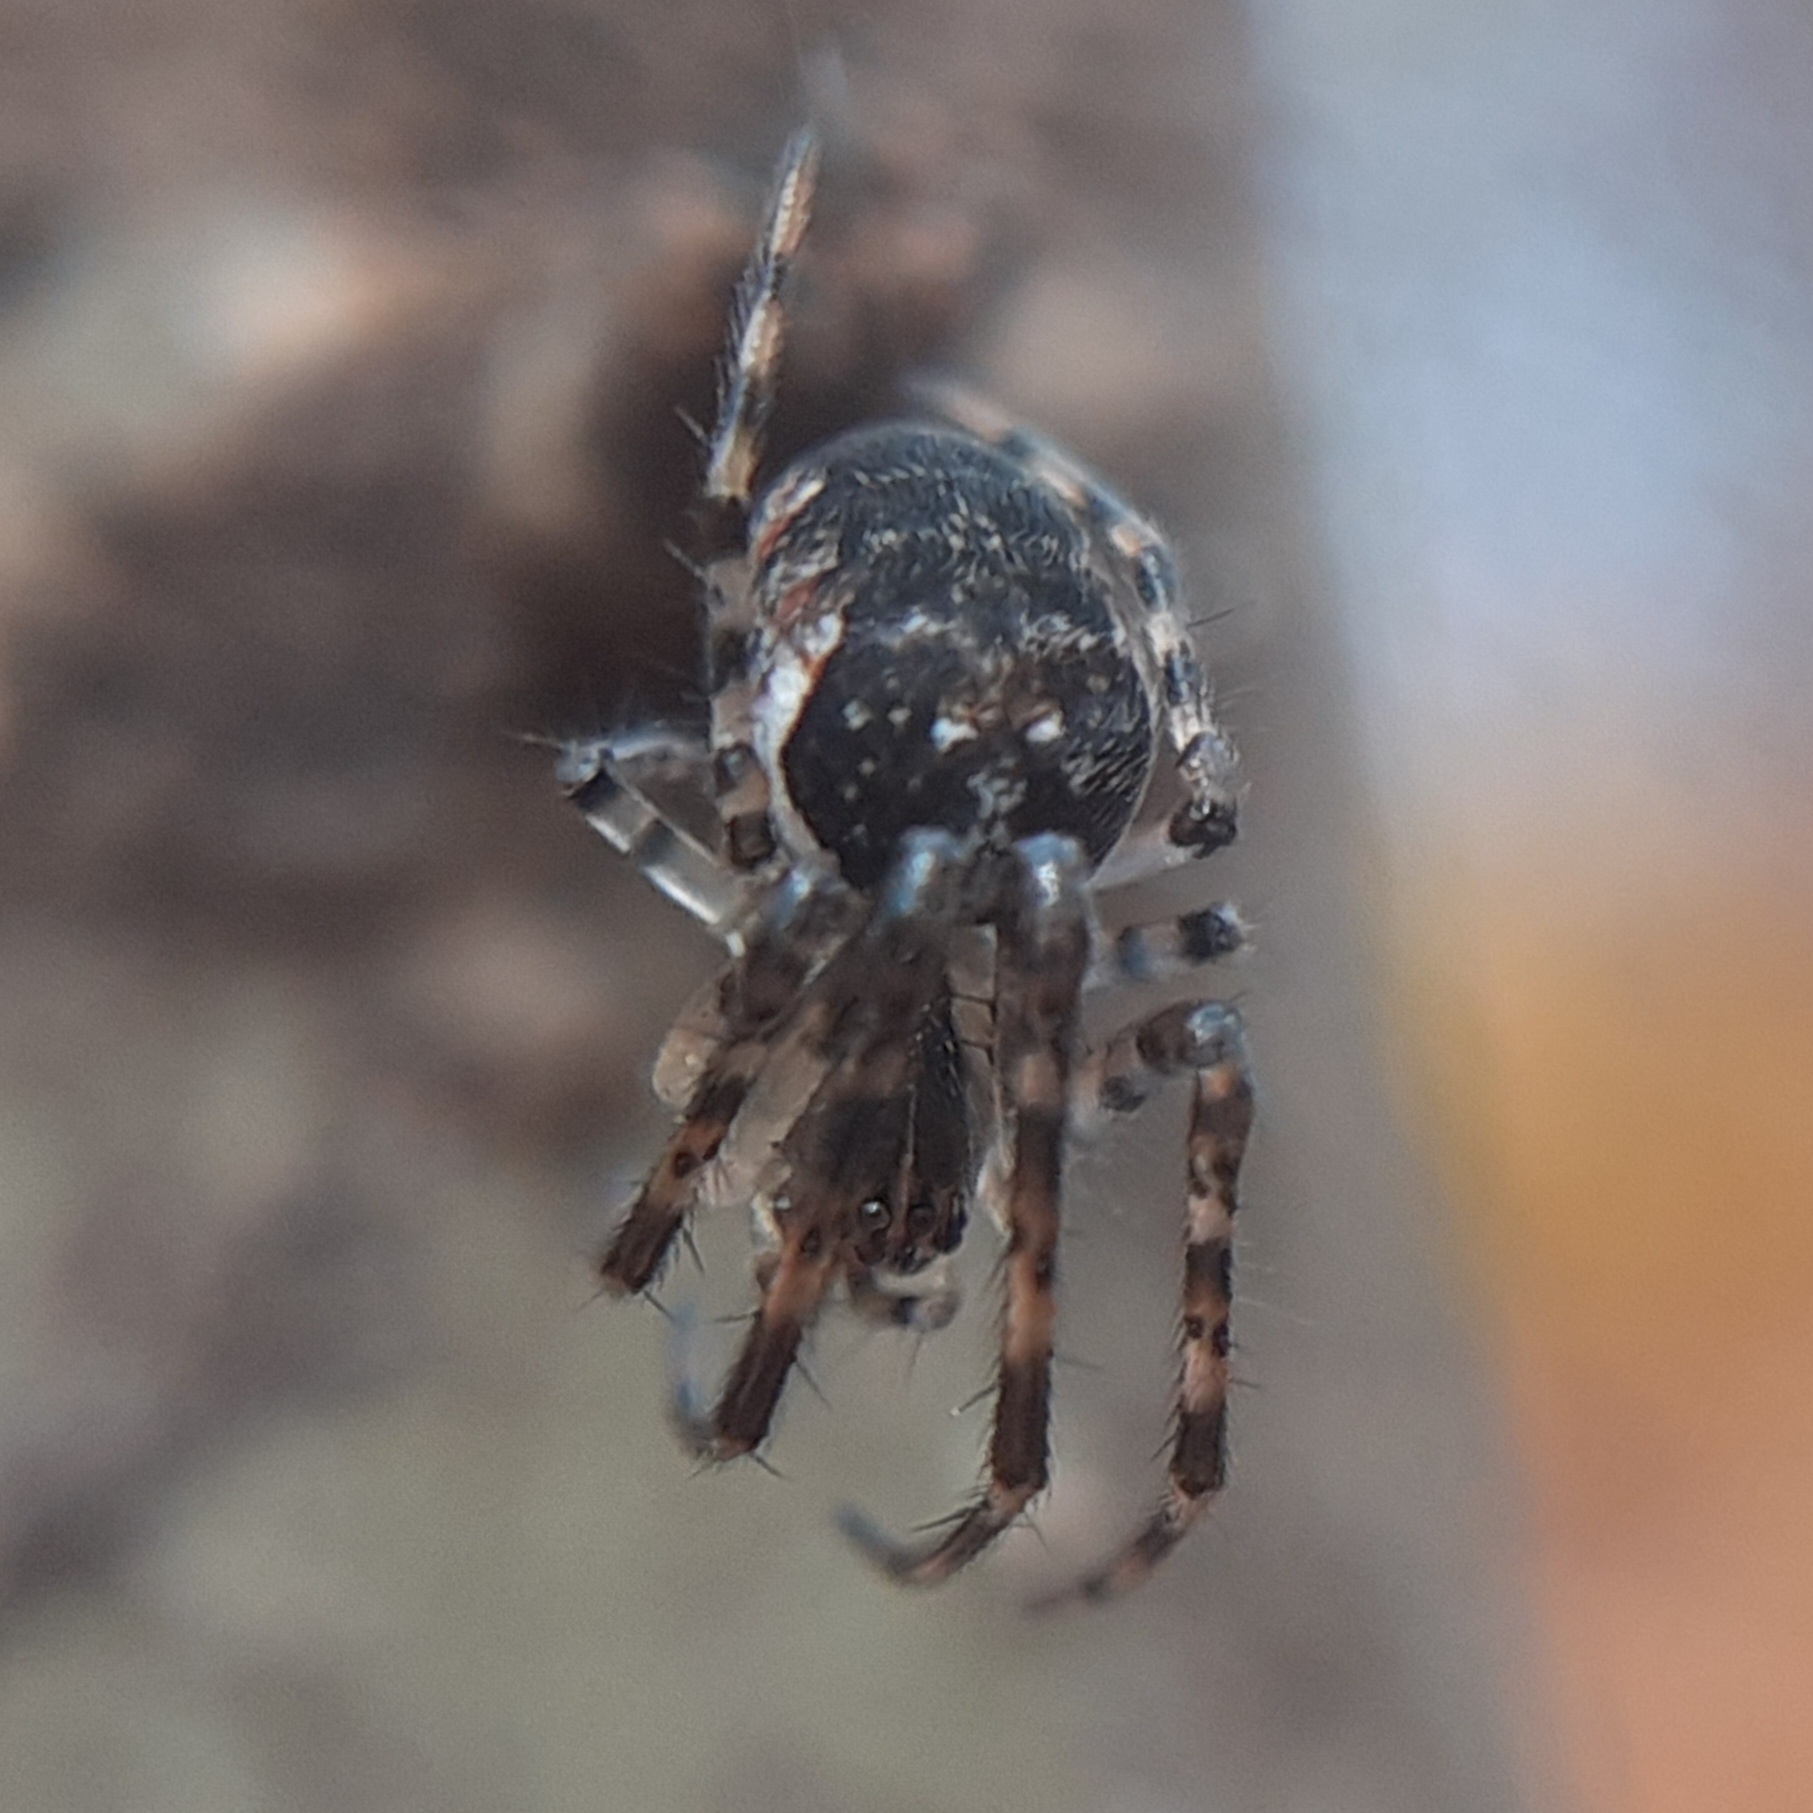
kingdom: Animalia
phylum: Arthropoda
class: Arachnida
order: Araneae
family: Tetragnathidae
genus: Metellina
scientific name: Metellina segmentata
